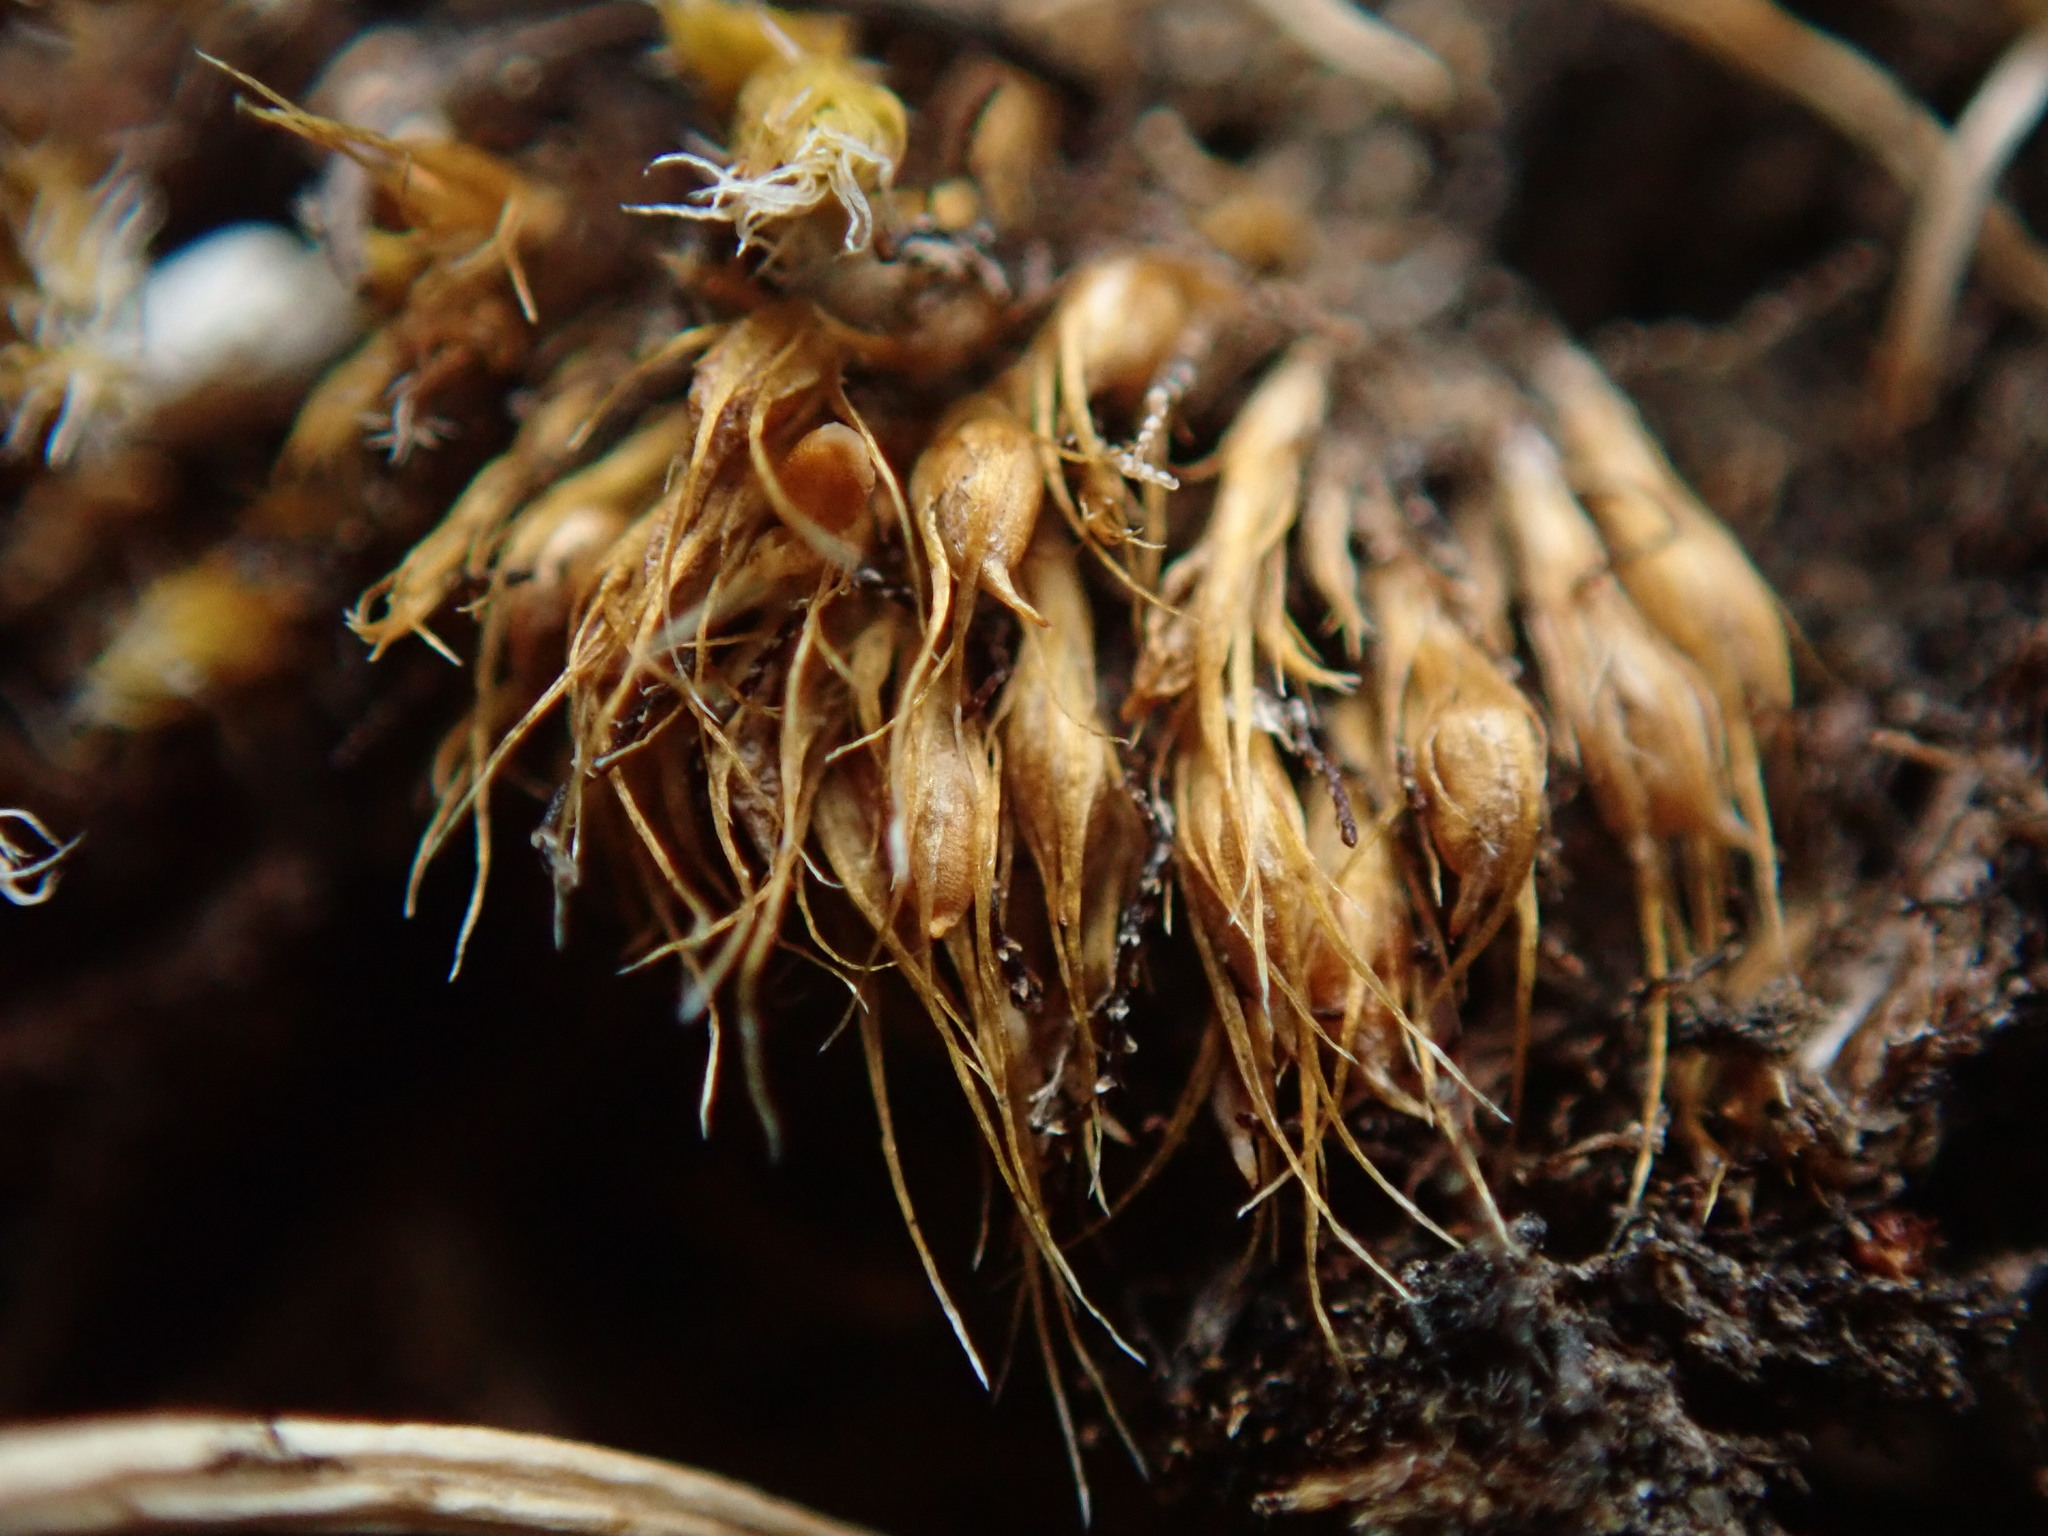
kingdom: Plantae
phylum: Bryophyta
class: Bryopsida
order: Dicranales
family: Ditrichaceae
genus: Pleuridium
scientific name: Pleuridium acuminatum
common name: Taper-leaved earth-moss
